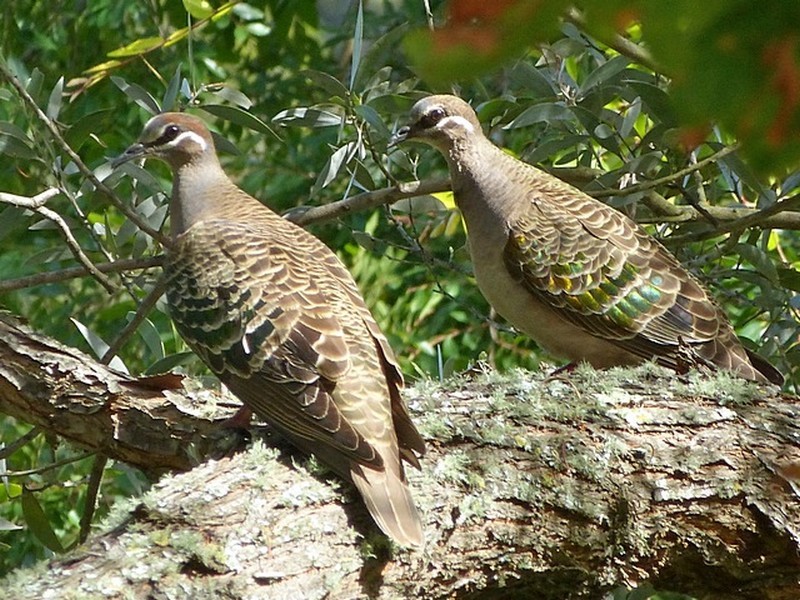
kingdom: Animalia
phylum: Chordata
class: Aves
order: Columbiformes
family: Columbidae
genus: Phaps
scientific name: Phaps chalcoptera
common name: Common bronzewing
